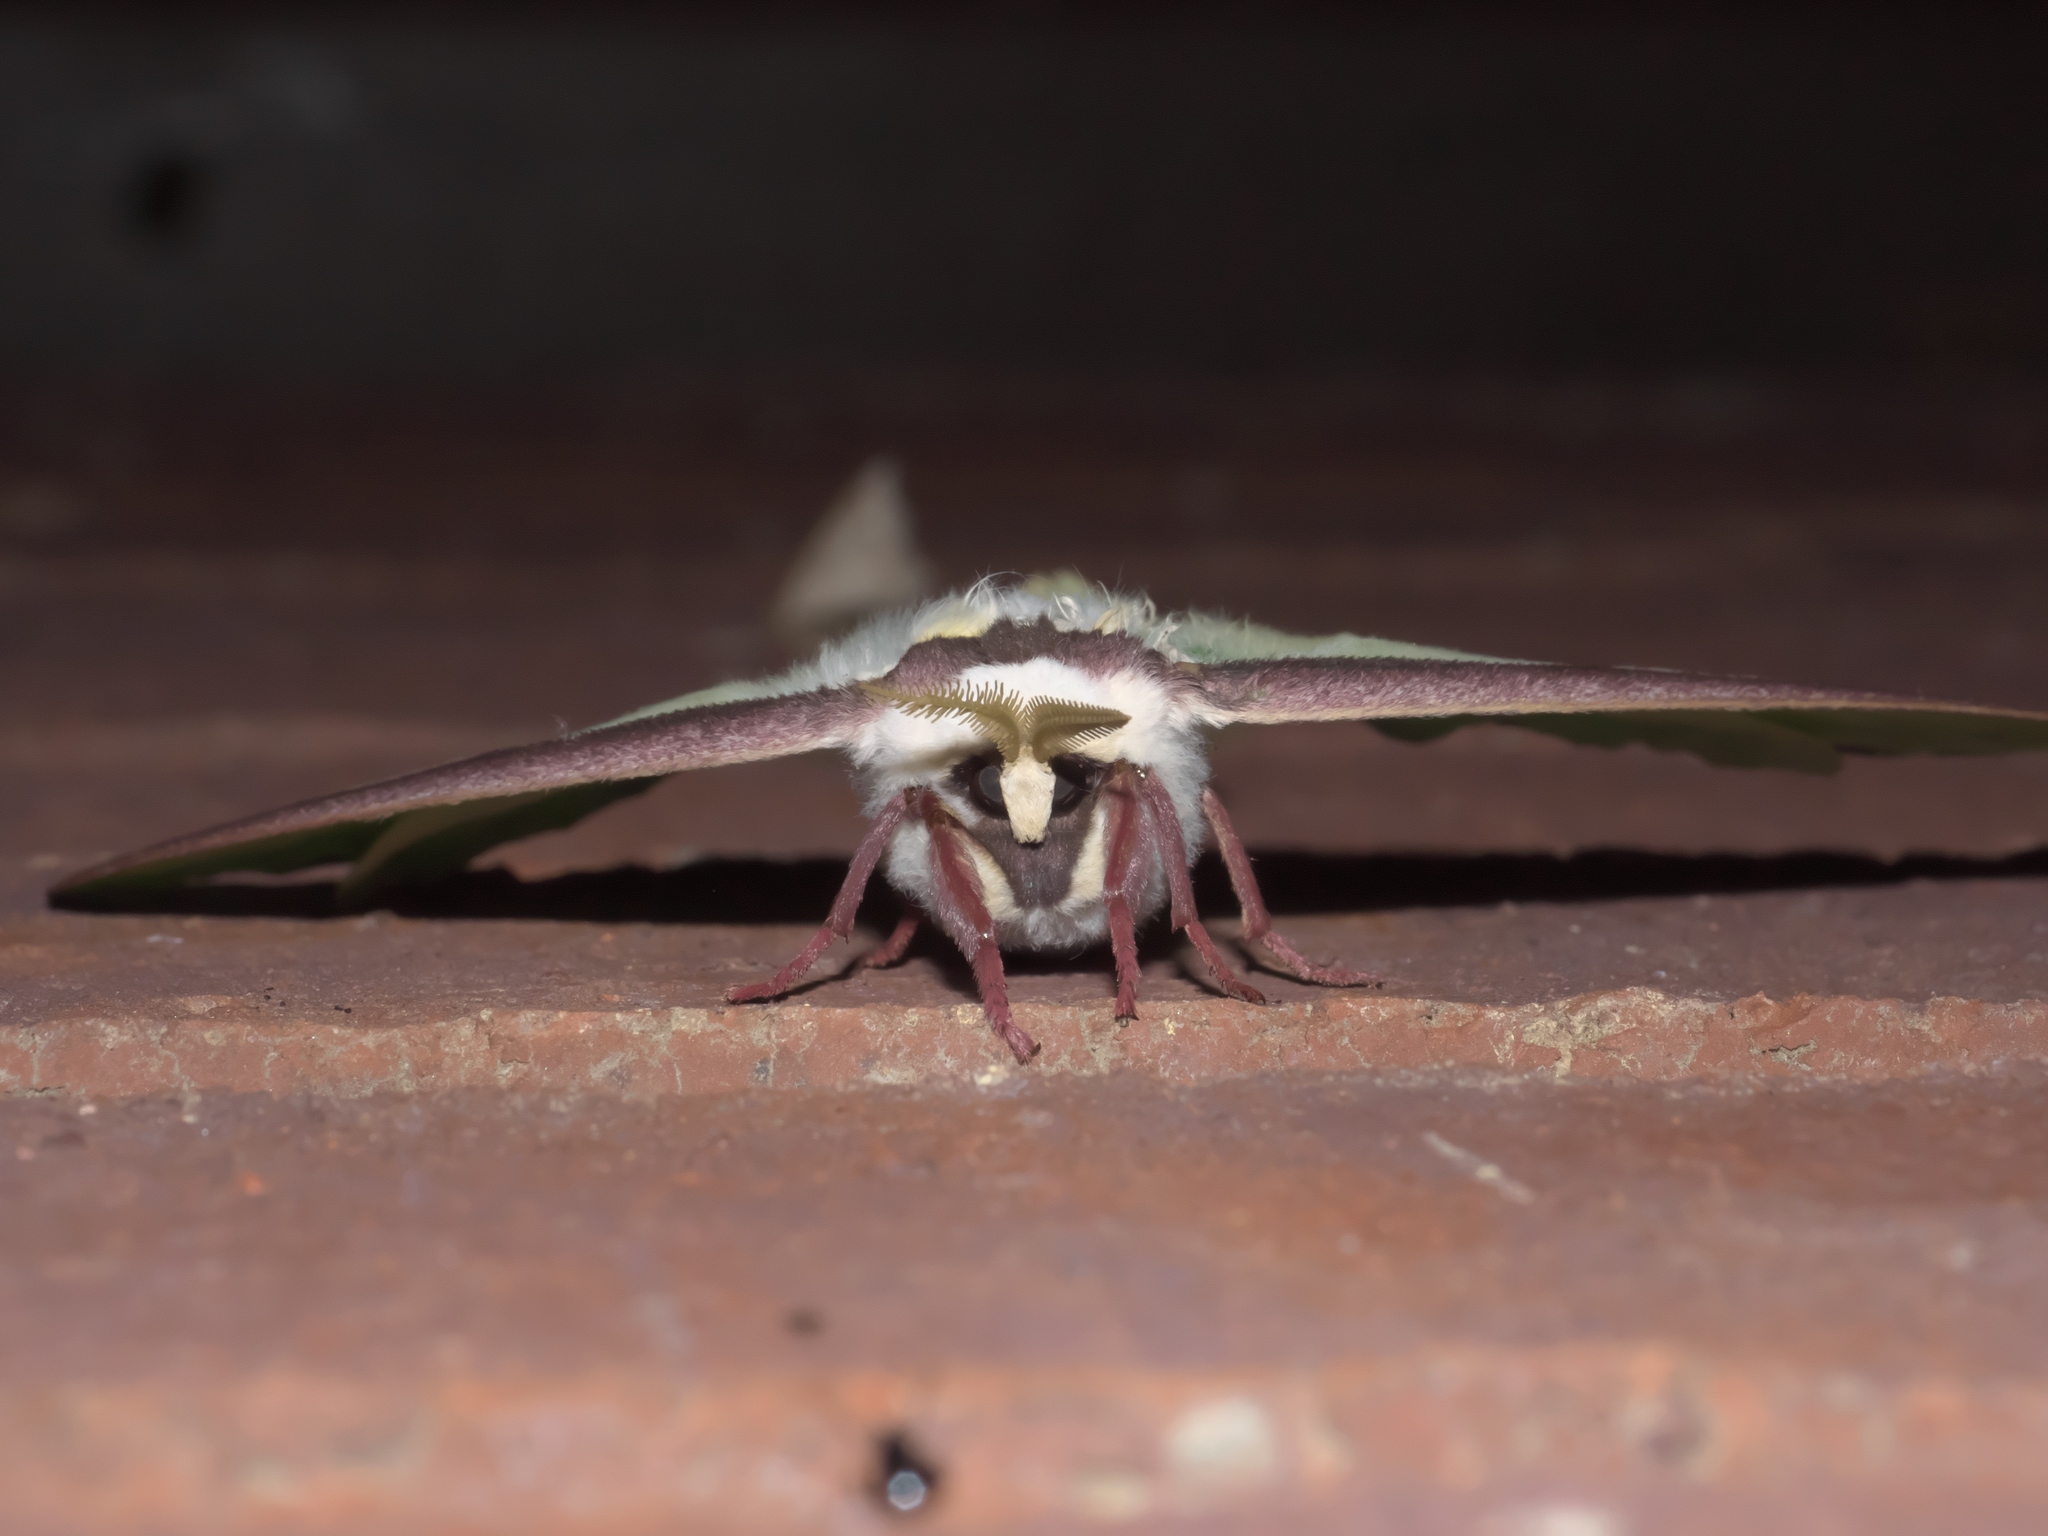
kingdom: Animalia
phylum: Arthropoda
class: Insecta
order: Lepidoptera
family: Saturniidae
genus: Actias
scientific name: Actias luna
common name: Luna moth
